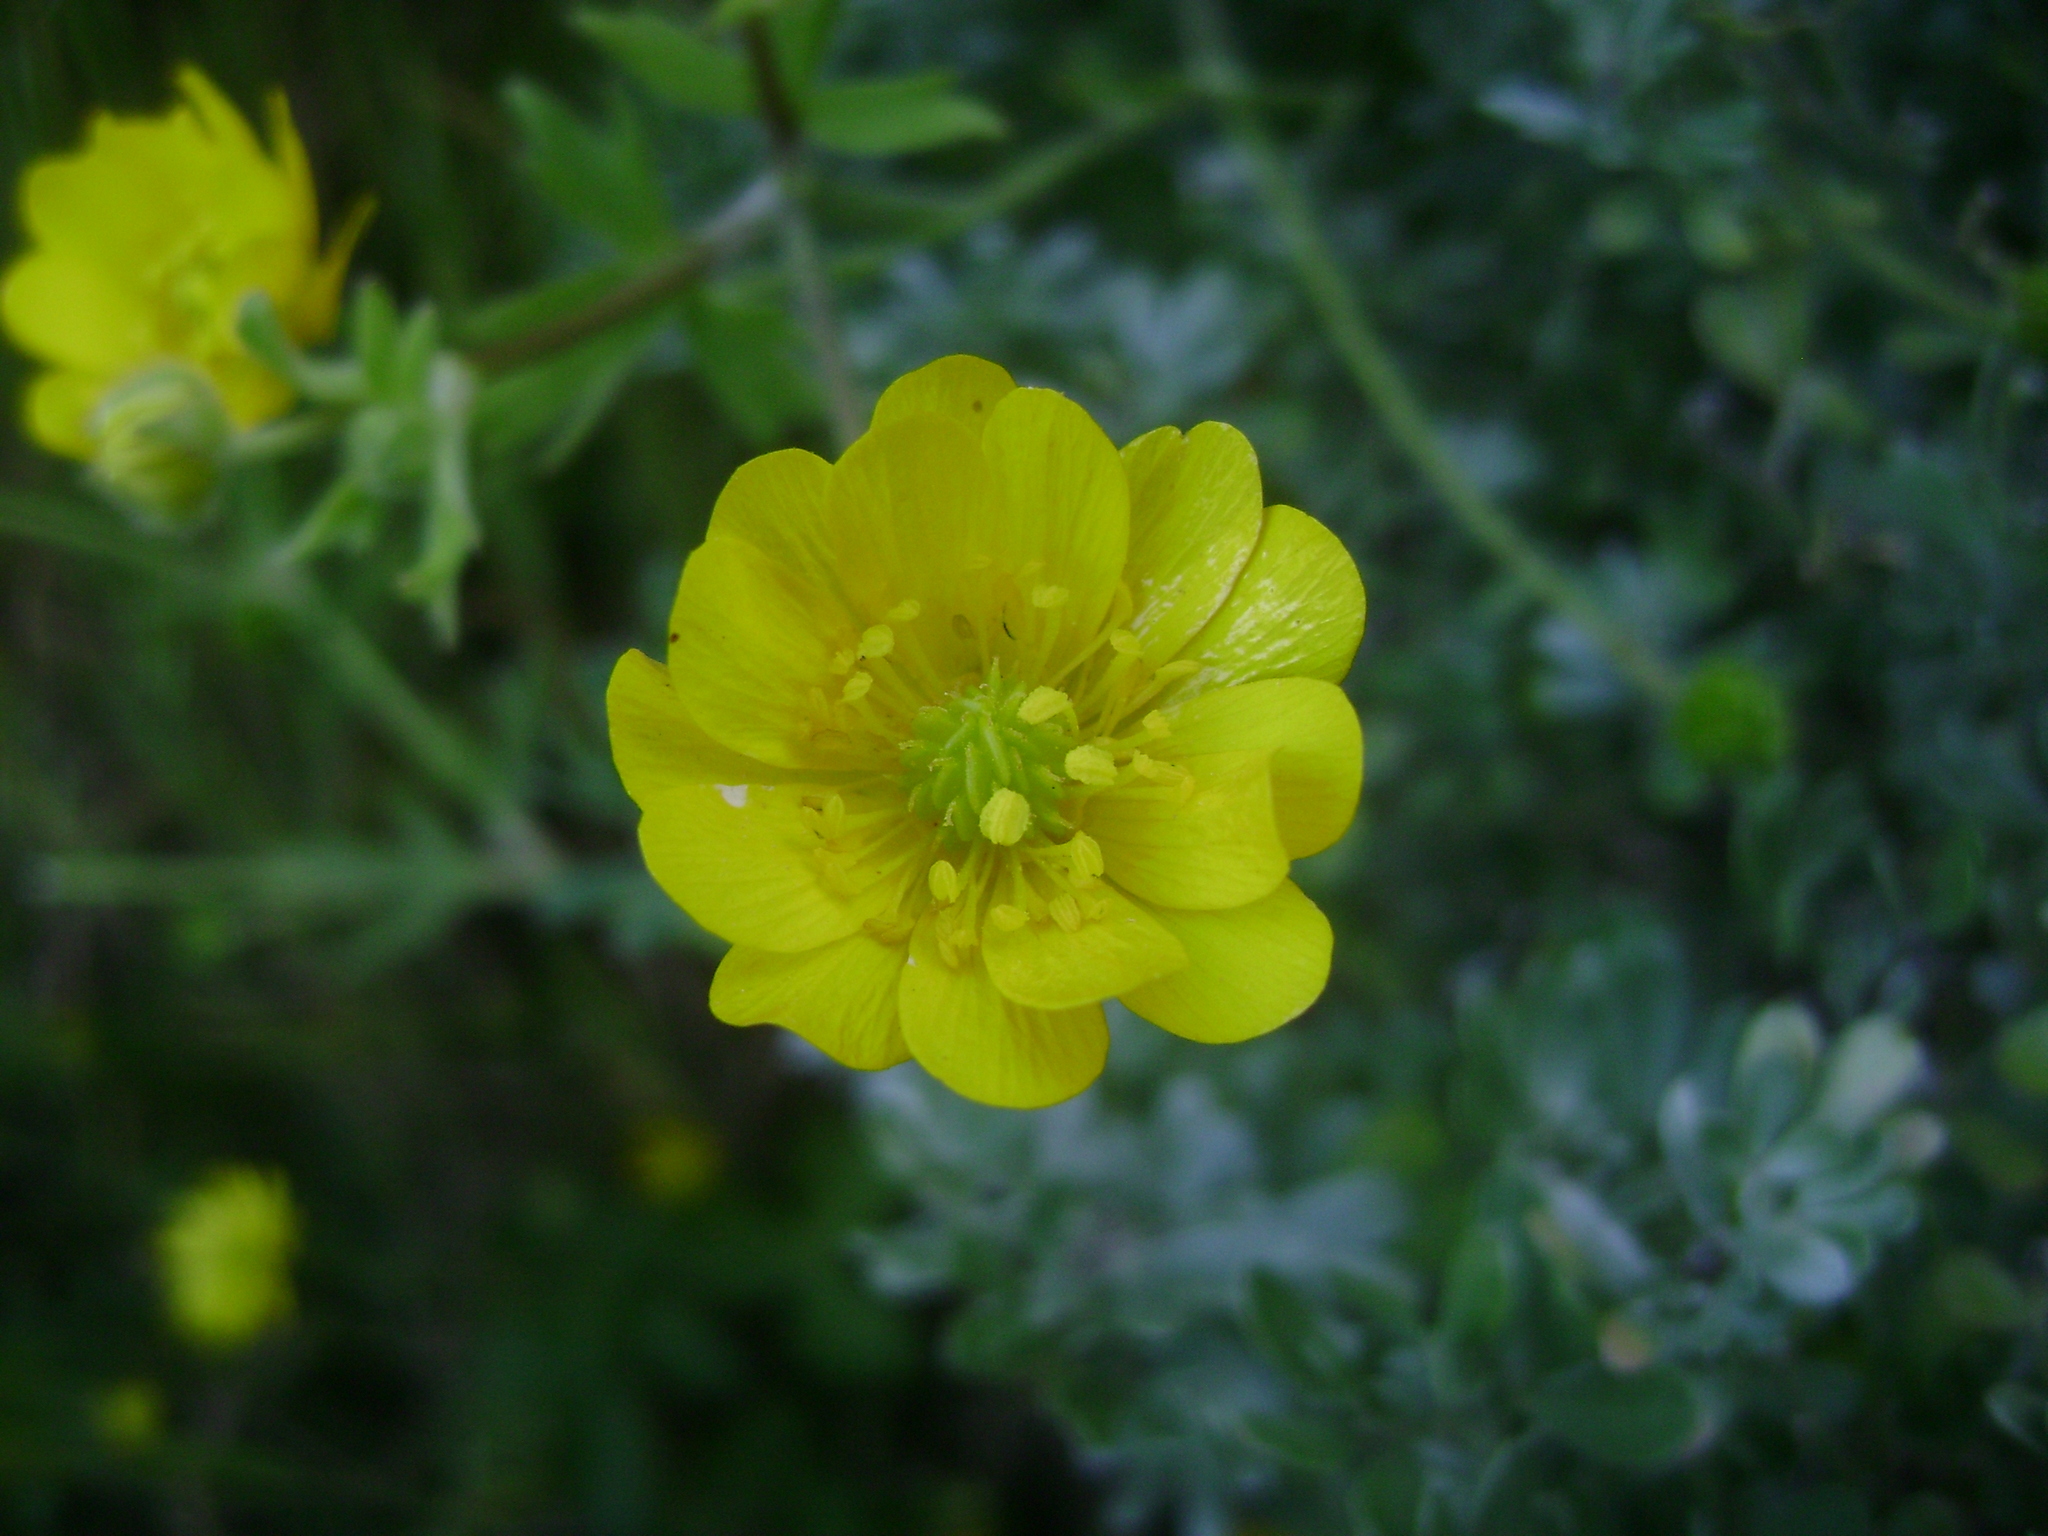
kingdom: Plantae
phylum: Tracheophyta
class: Magnoliopsida
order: Ranunculales
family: Ranunculaceae
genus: Ranunculus
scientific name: Ranunculus californicus
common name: California buttercup
